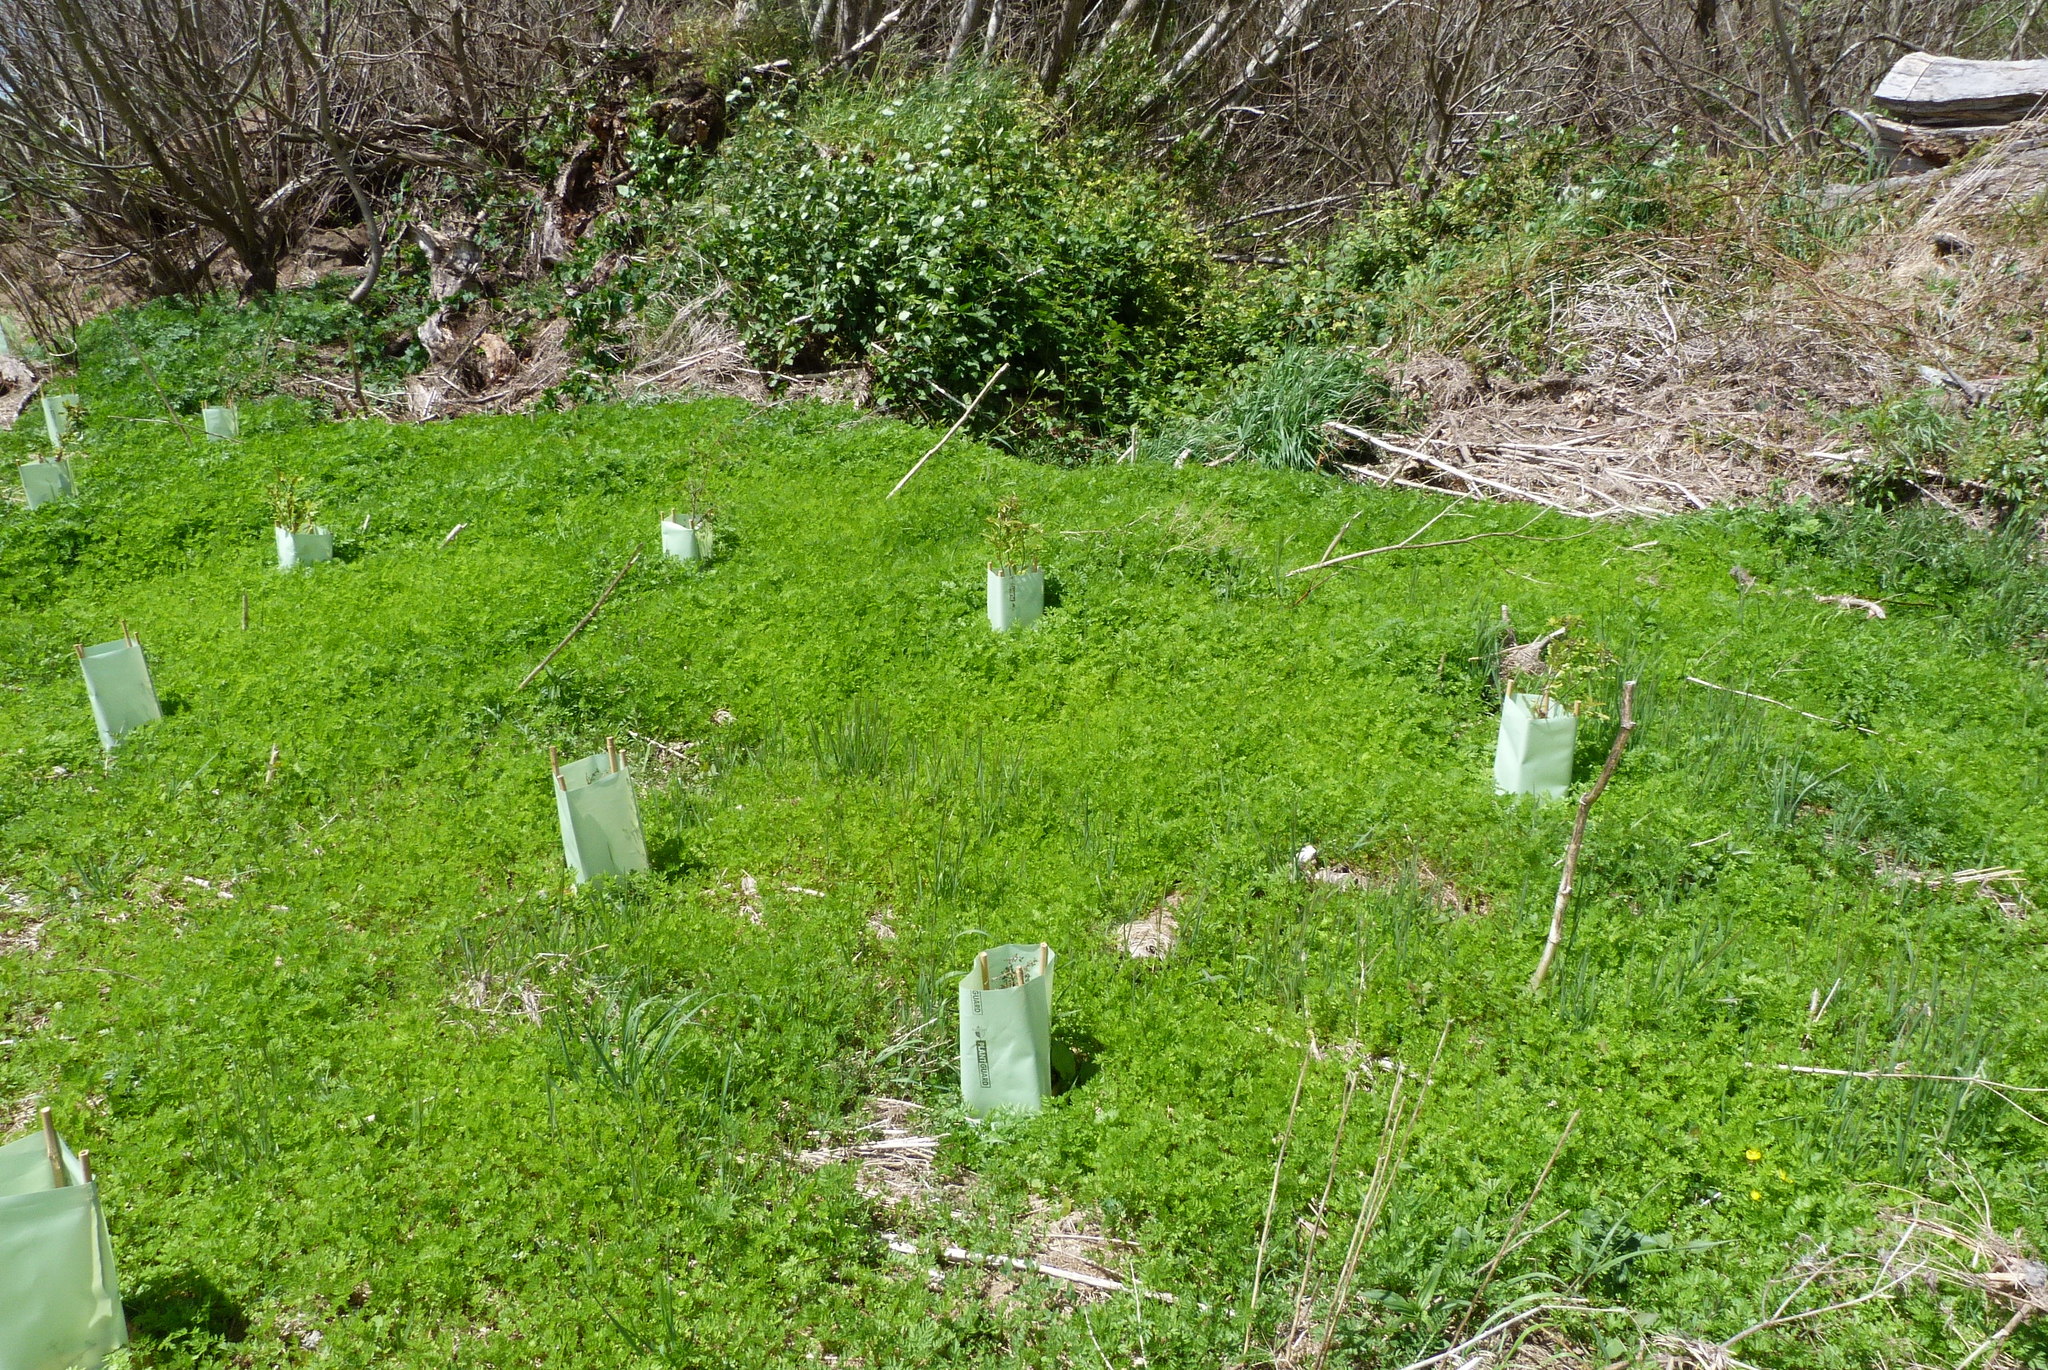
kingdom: Plantae
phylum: Tracheophyta
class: Magnoliopsida
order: Apiales
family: Apiaceae
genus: Daucus
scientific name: Daucus carota
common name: Wild carrot
